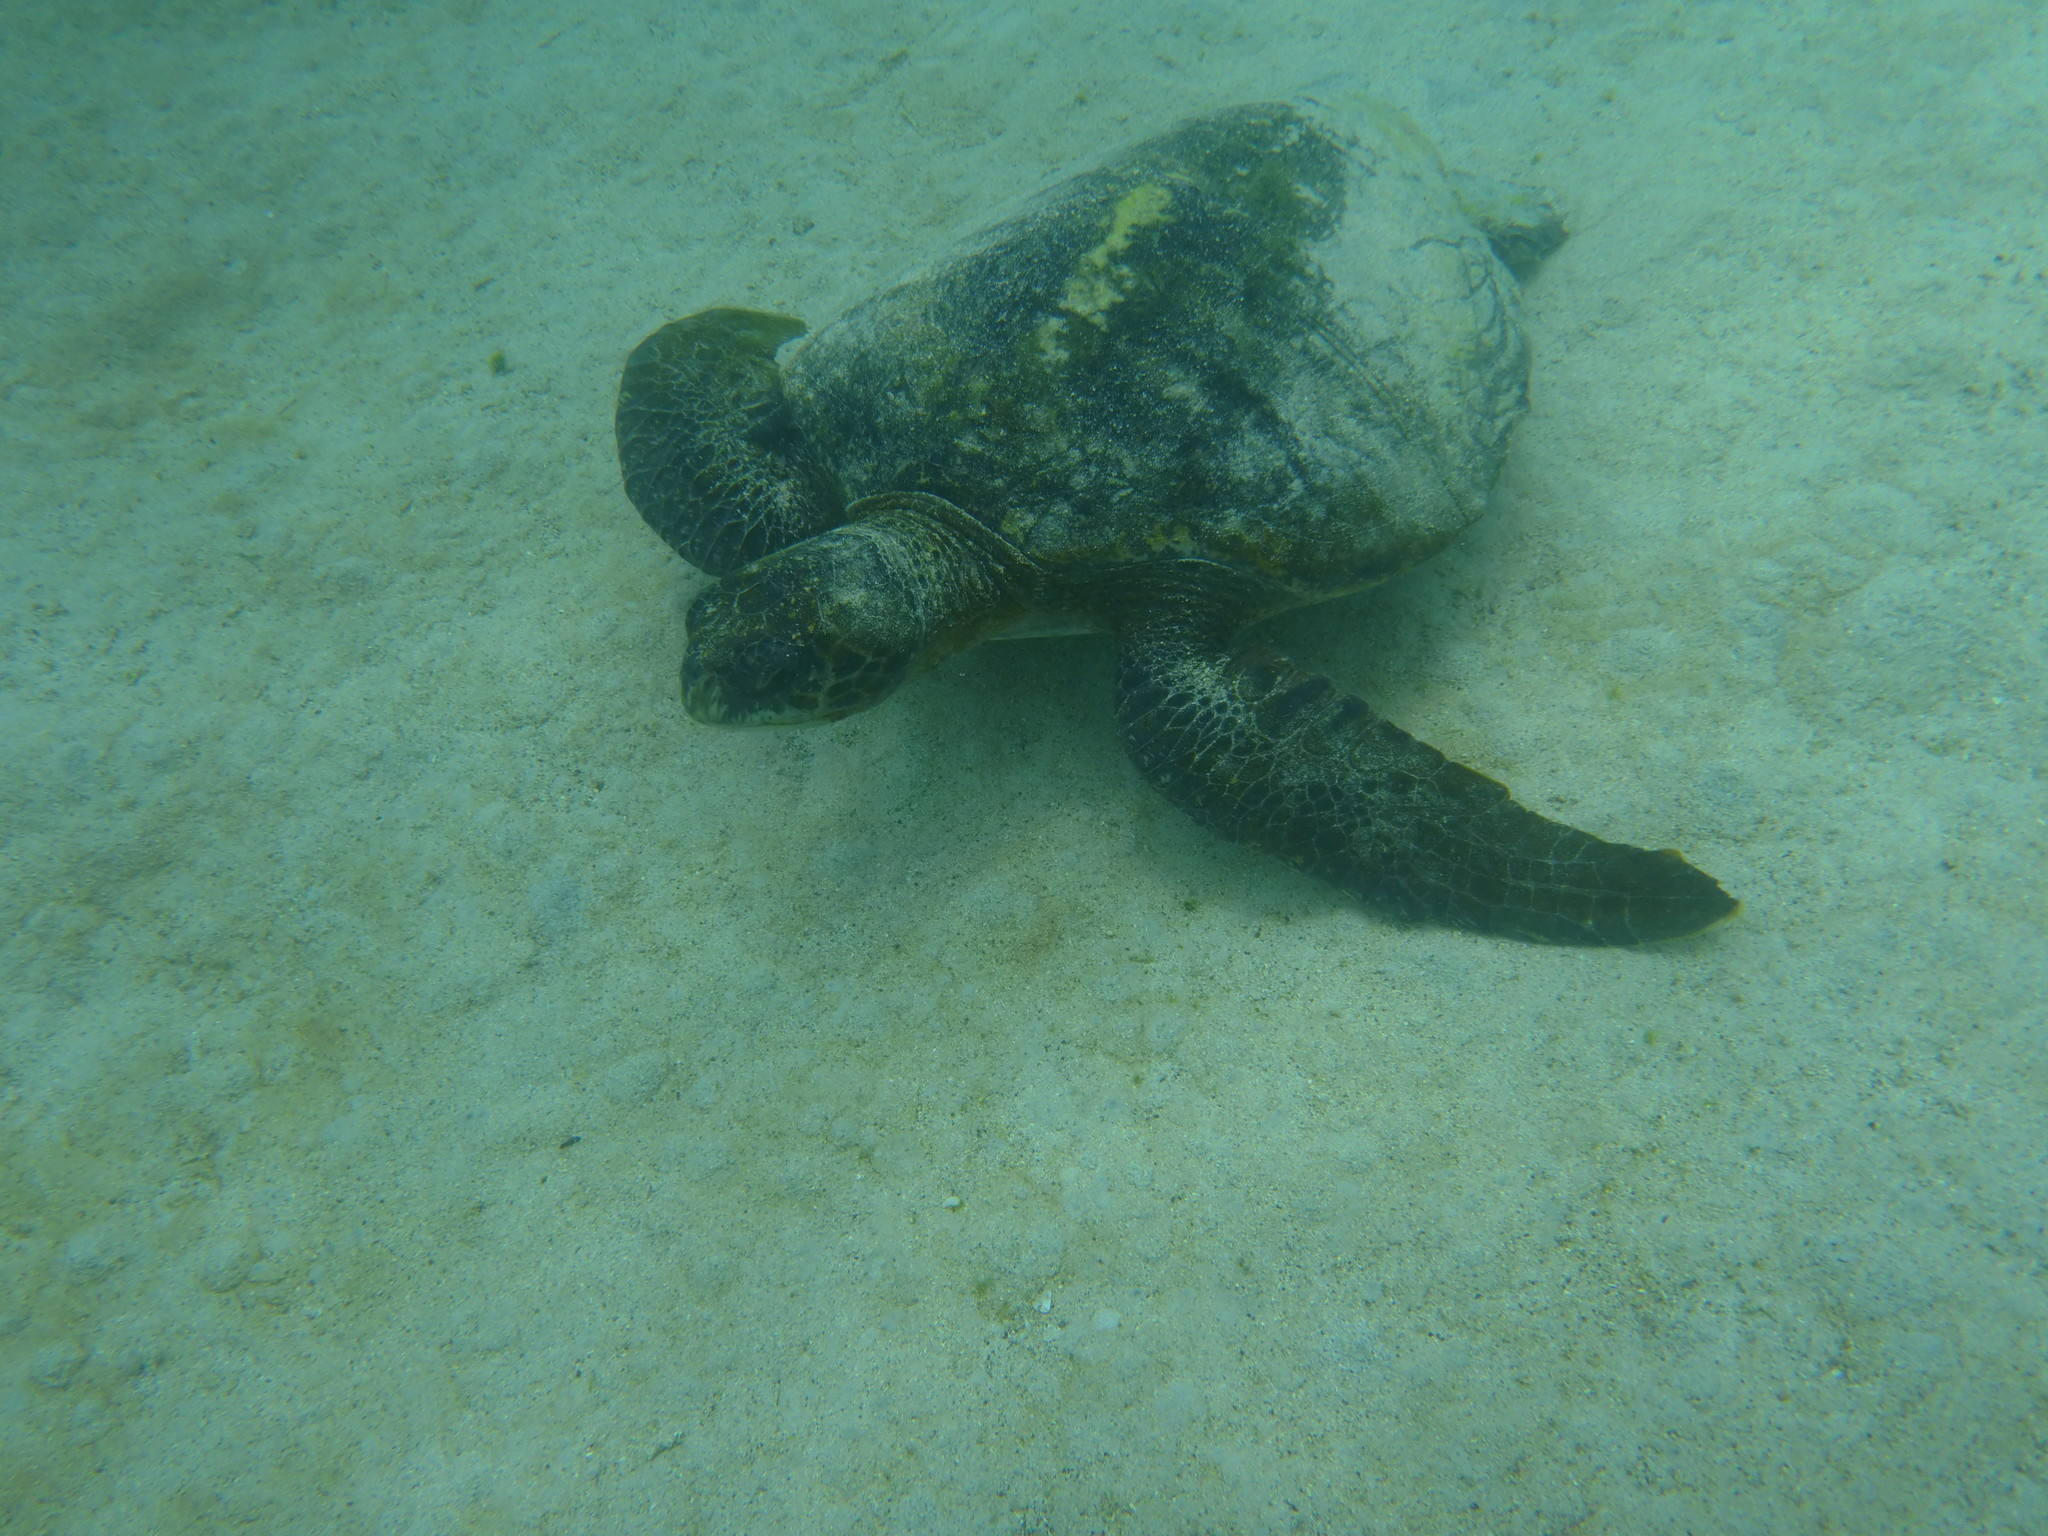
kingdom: Animalia
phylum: Chordata
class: Testudines
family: Cheloniidae
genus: Chelonia
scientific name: Chelonia mydas
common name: Green turtle
